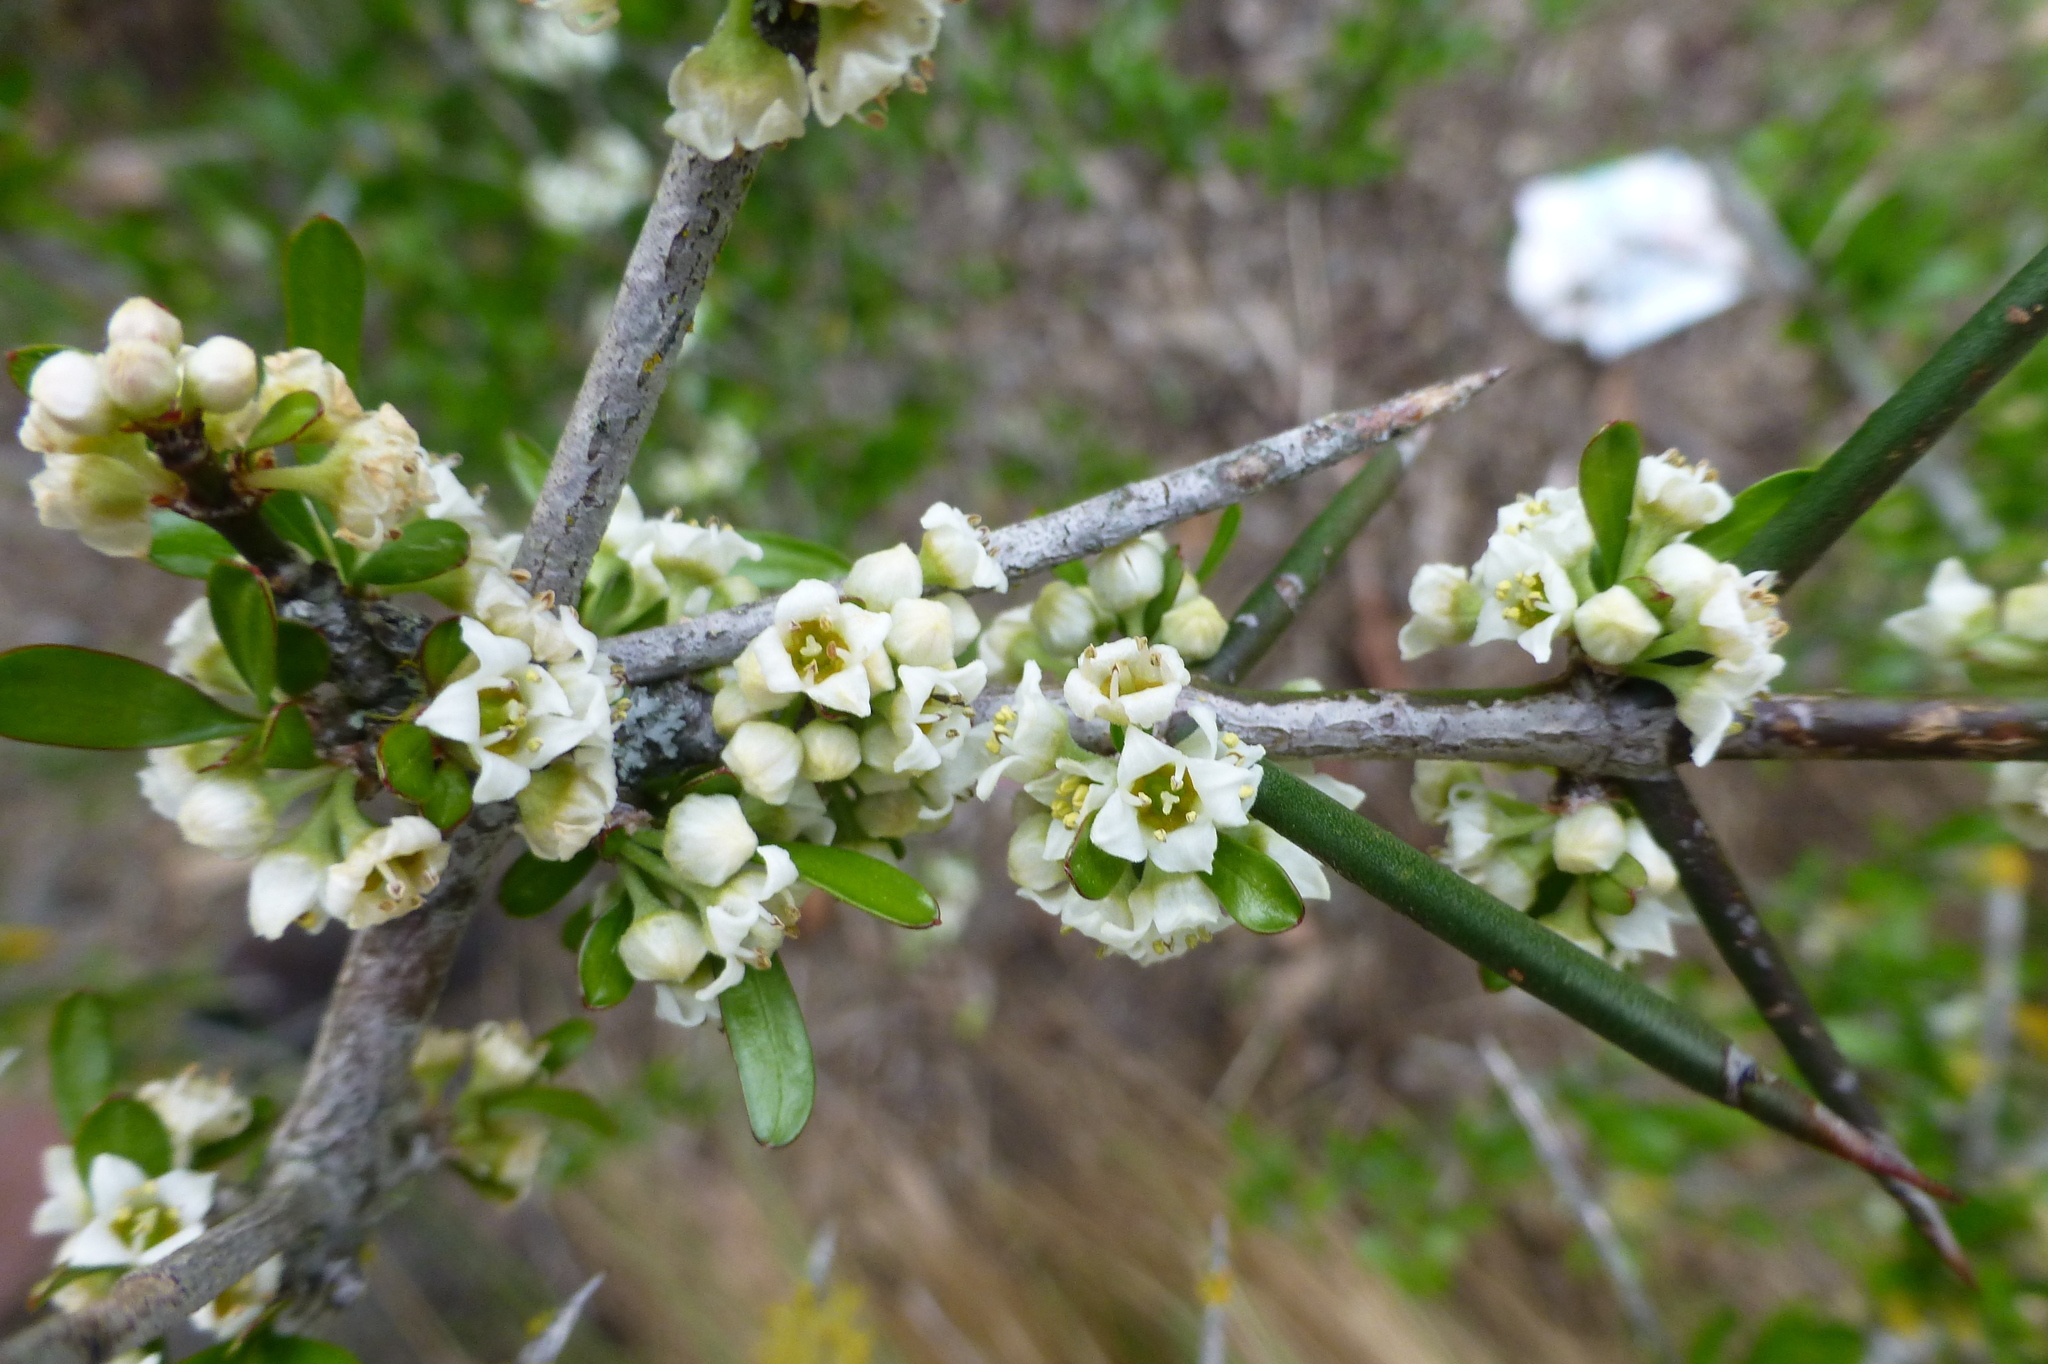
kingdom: Plantae
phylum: Tracheophyta
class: Magnoliopsida
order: Rosales
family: Rhamnaceae
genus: Discaria
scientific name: Discaria toumatou
